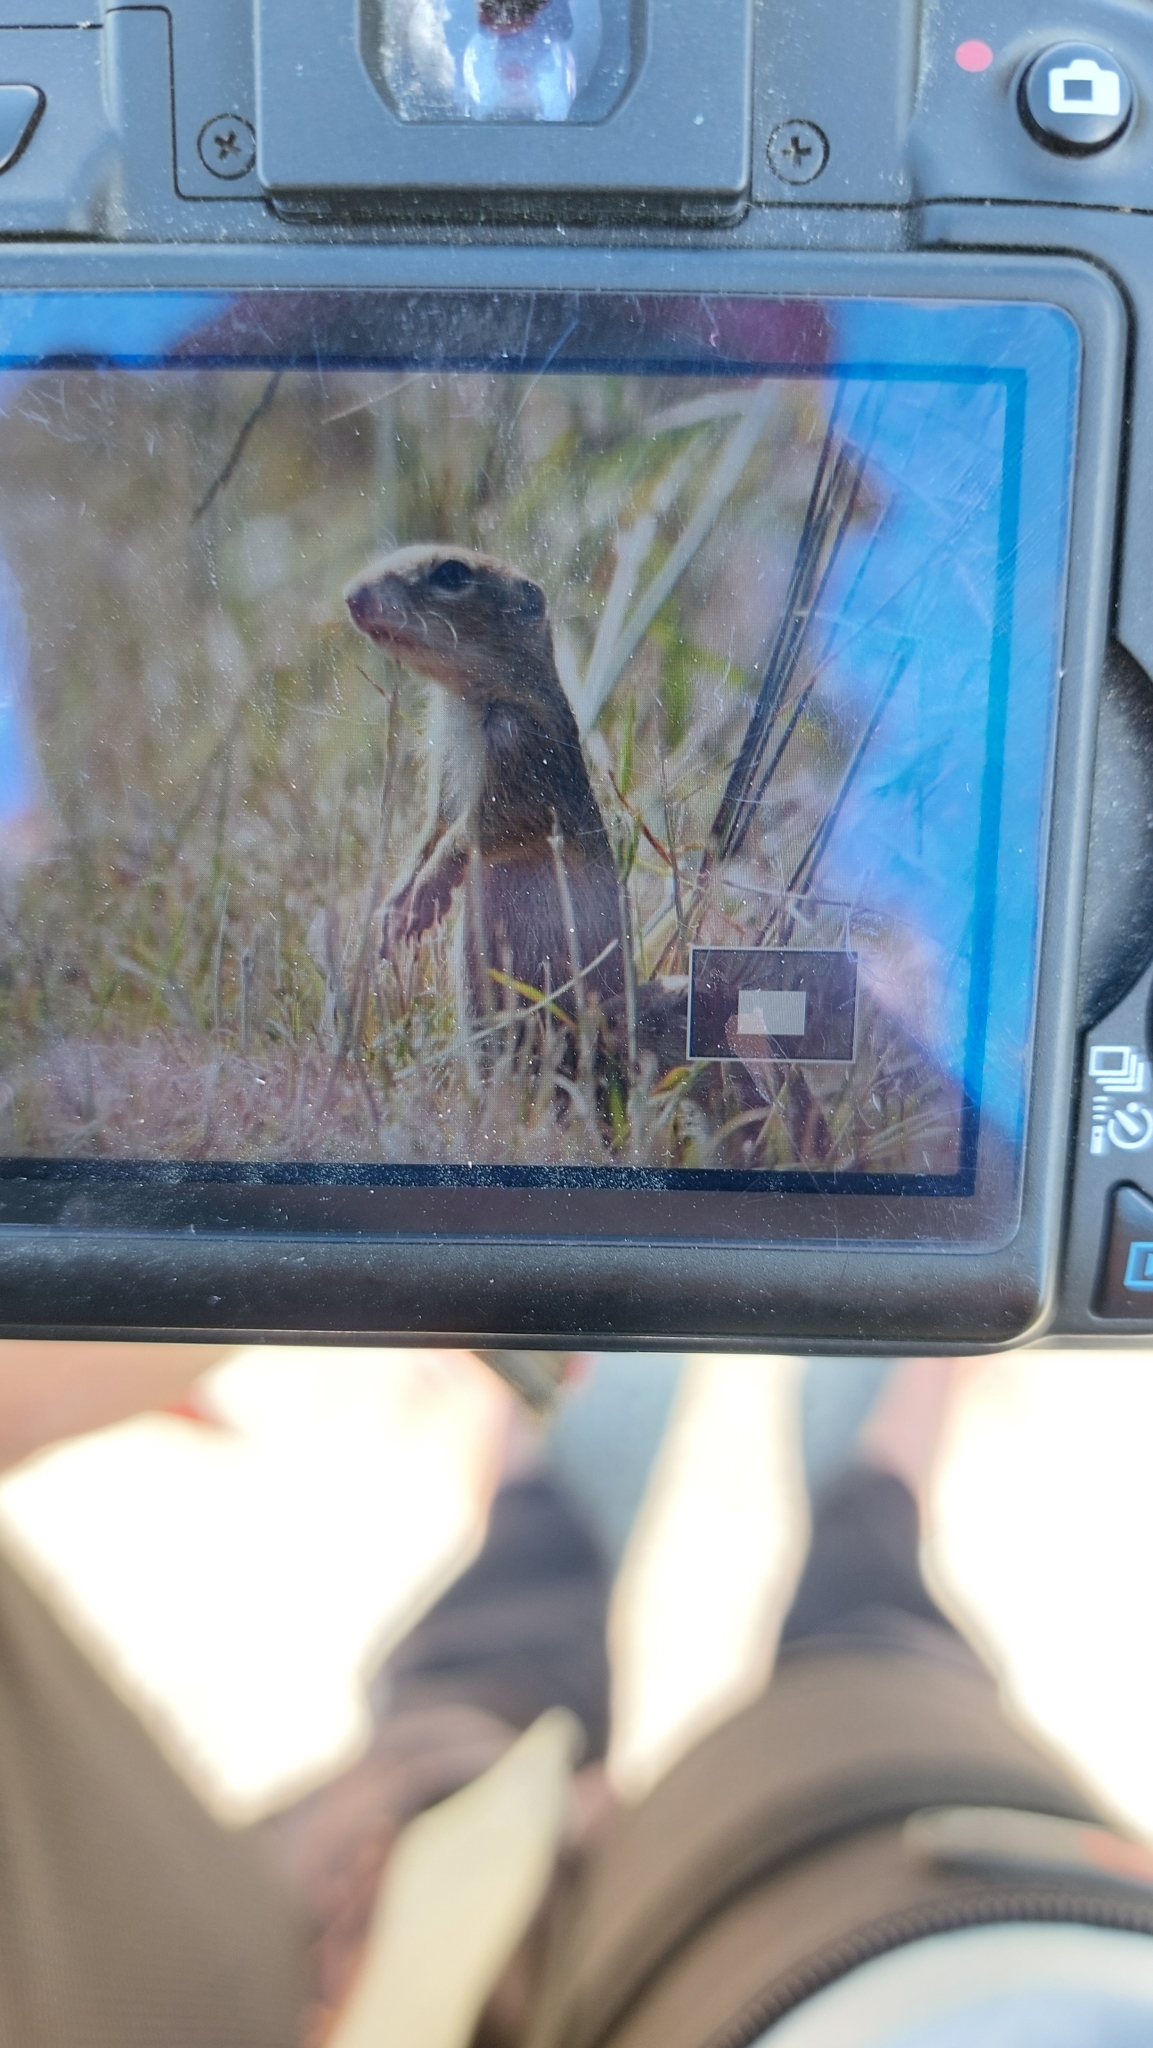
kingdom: Animalia
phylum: Chordata
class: Mammalia
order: Rodentia
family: Sciuridae
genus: Spermophilus
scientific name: Spermophilus citellus
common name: European ground squirrel
